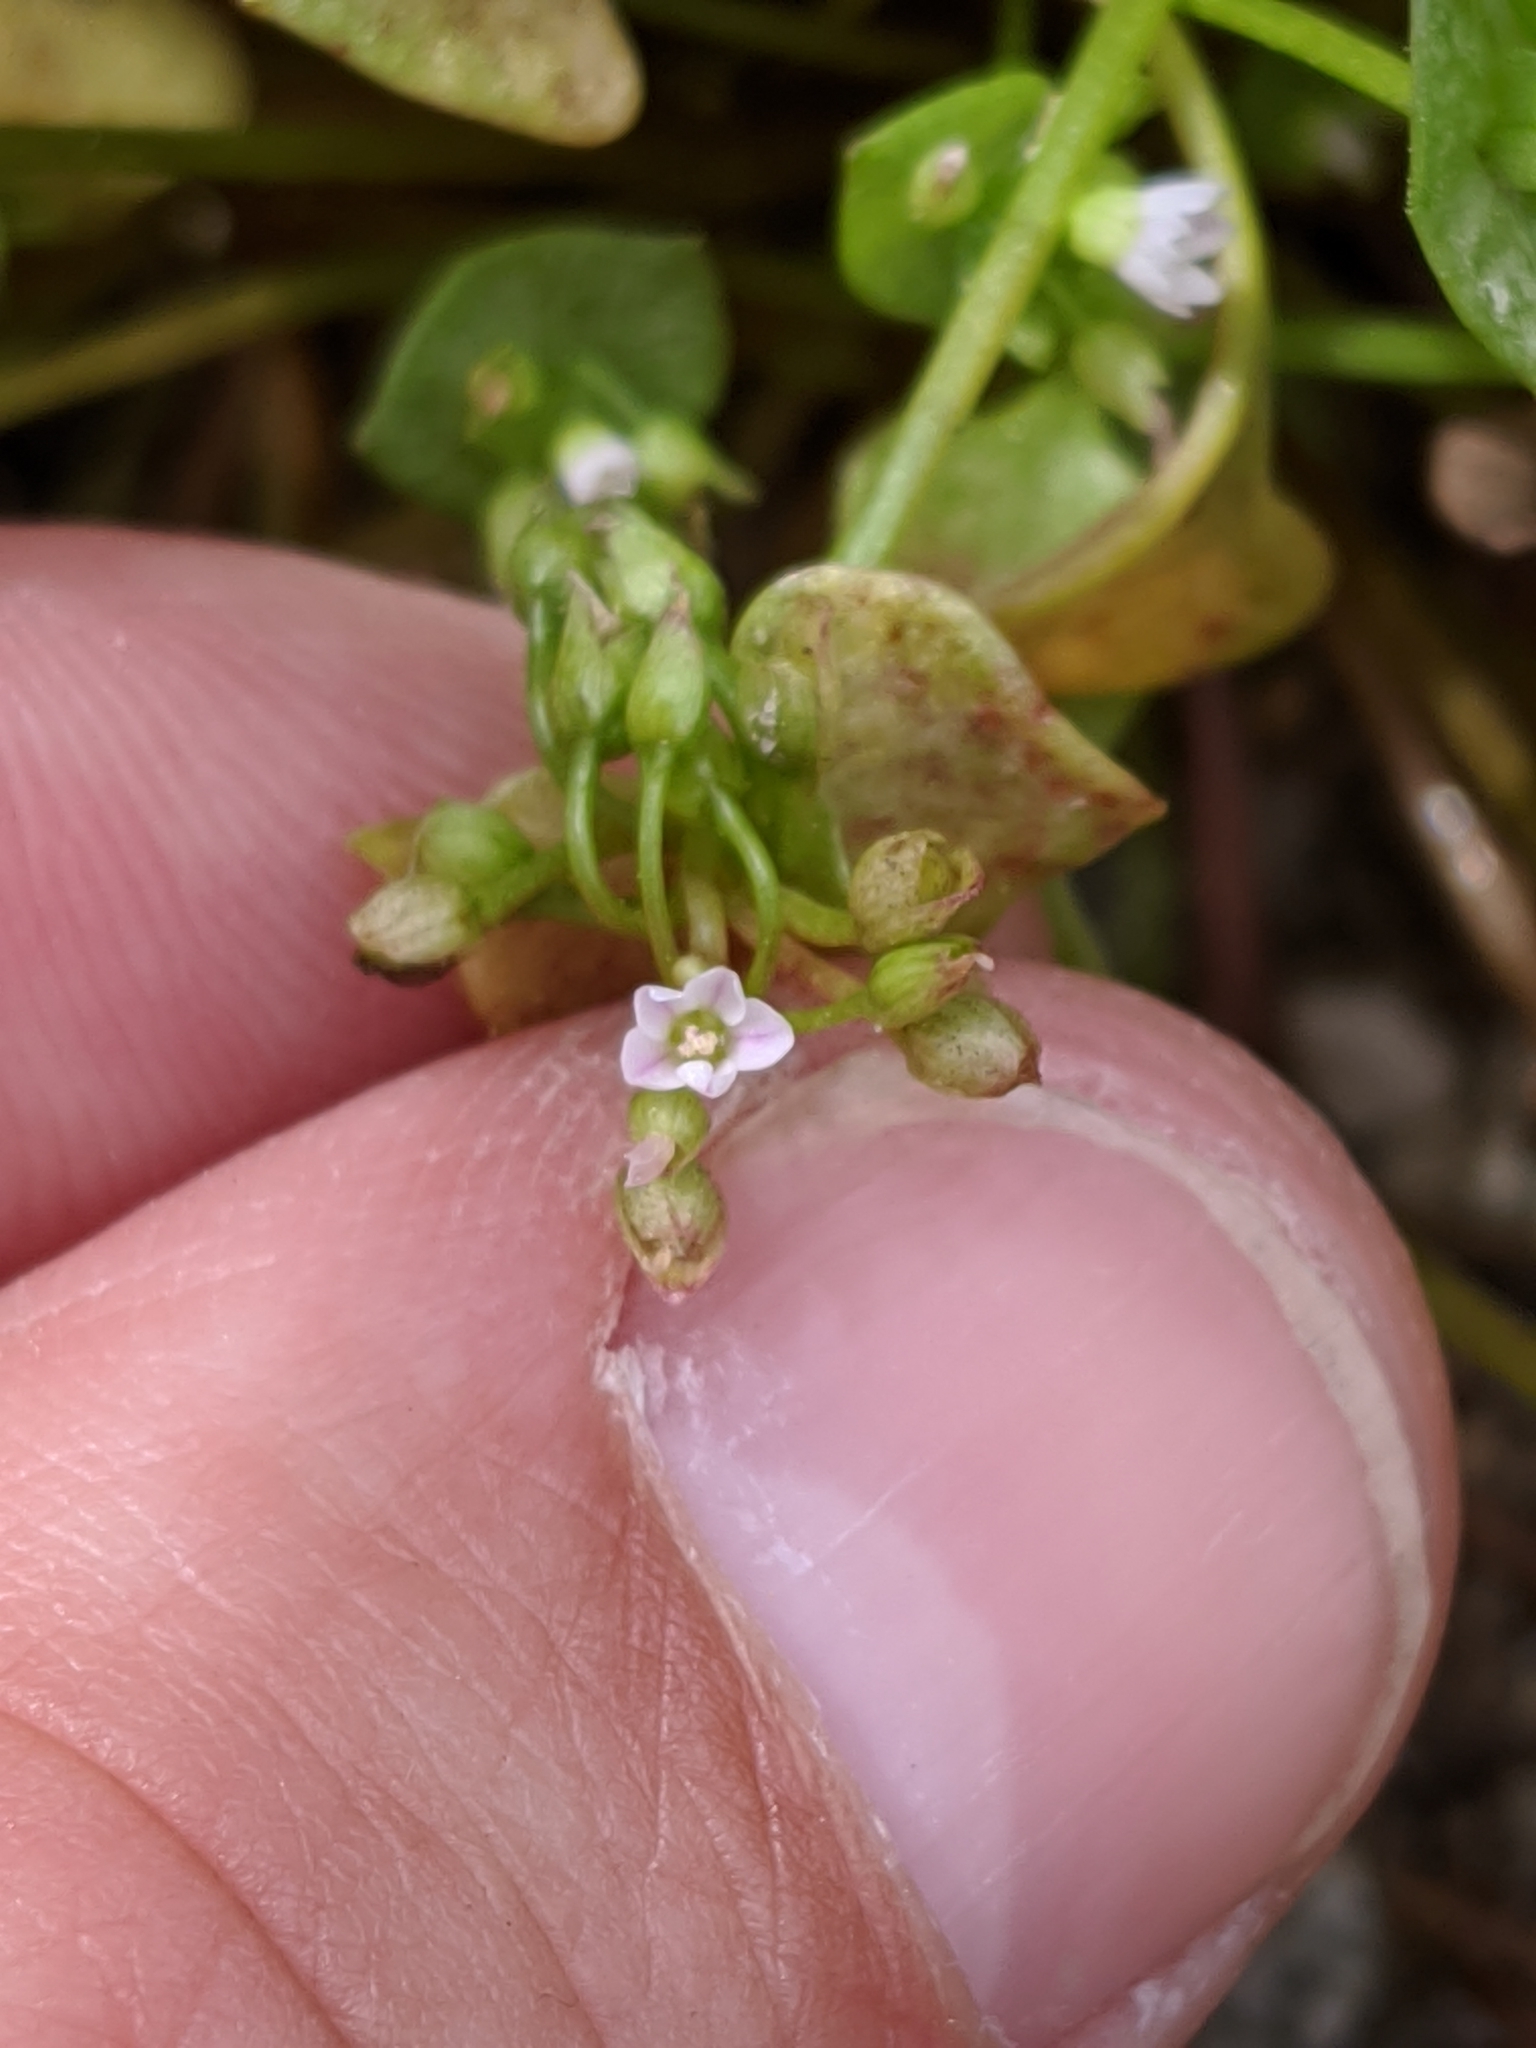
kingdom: Plantae
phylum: Tracheophyta
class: Magnoliopsida
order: Caryophyllales
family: Montiaceae
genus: Claytonia
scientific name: Claytonia rubra
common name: Erubescent miner's-lettuce
